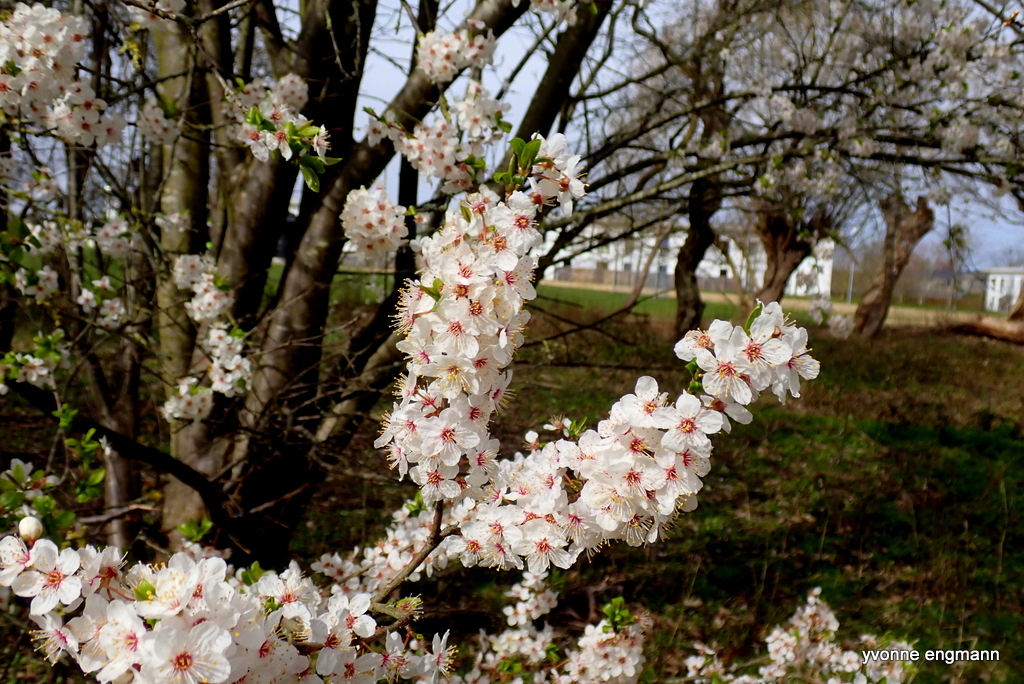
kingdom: Plantae
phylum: Tracheophyta
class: Magnoliopsida
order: Rosales
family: Rosaceae
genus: Prunus
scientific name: Prunus cerasifera
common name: Cherry plum
